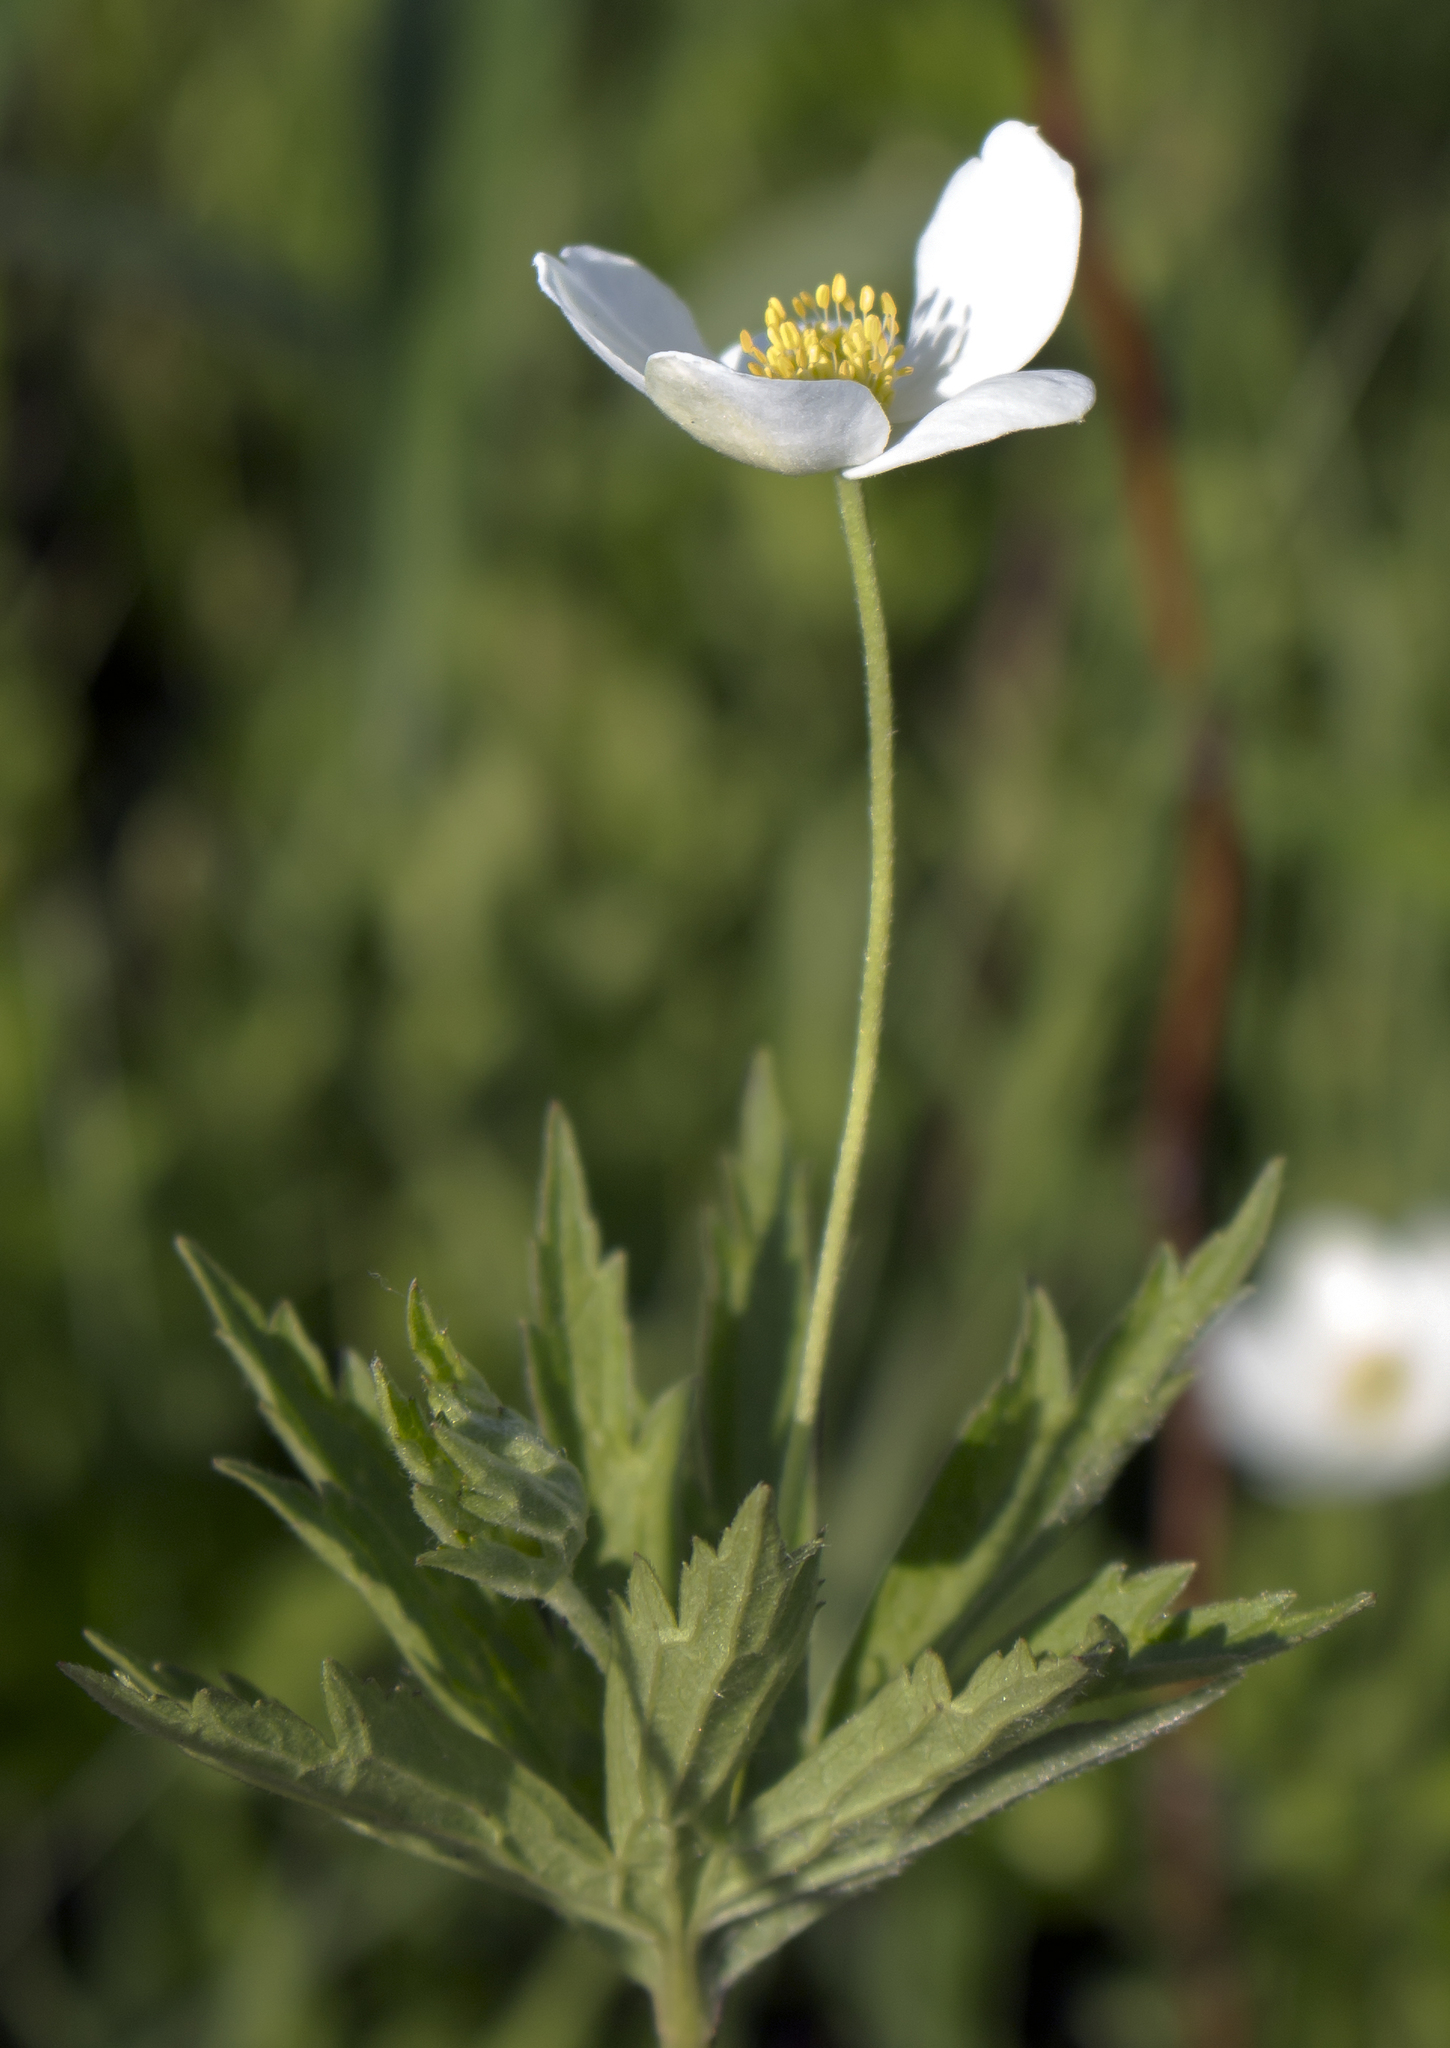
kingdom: Plantae
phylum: Tracheophyta
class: Magnoliopsida
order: Ranunculales
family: Ranunculaceae
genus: Anemonastrum
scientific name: Anemonastrum canadense
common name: Canada anemone
